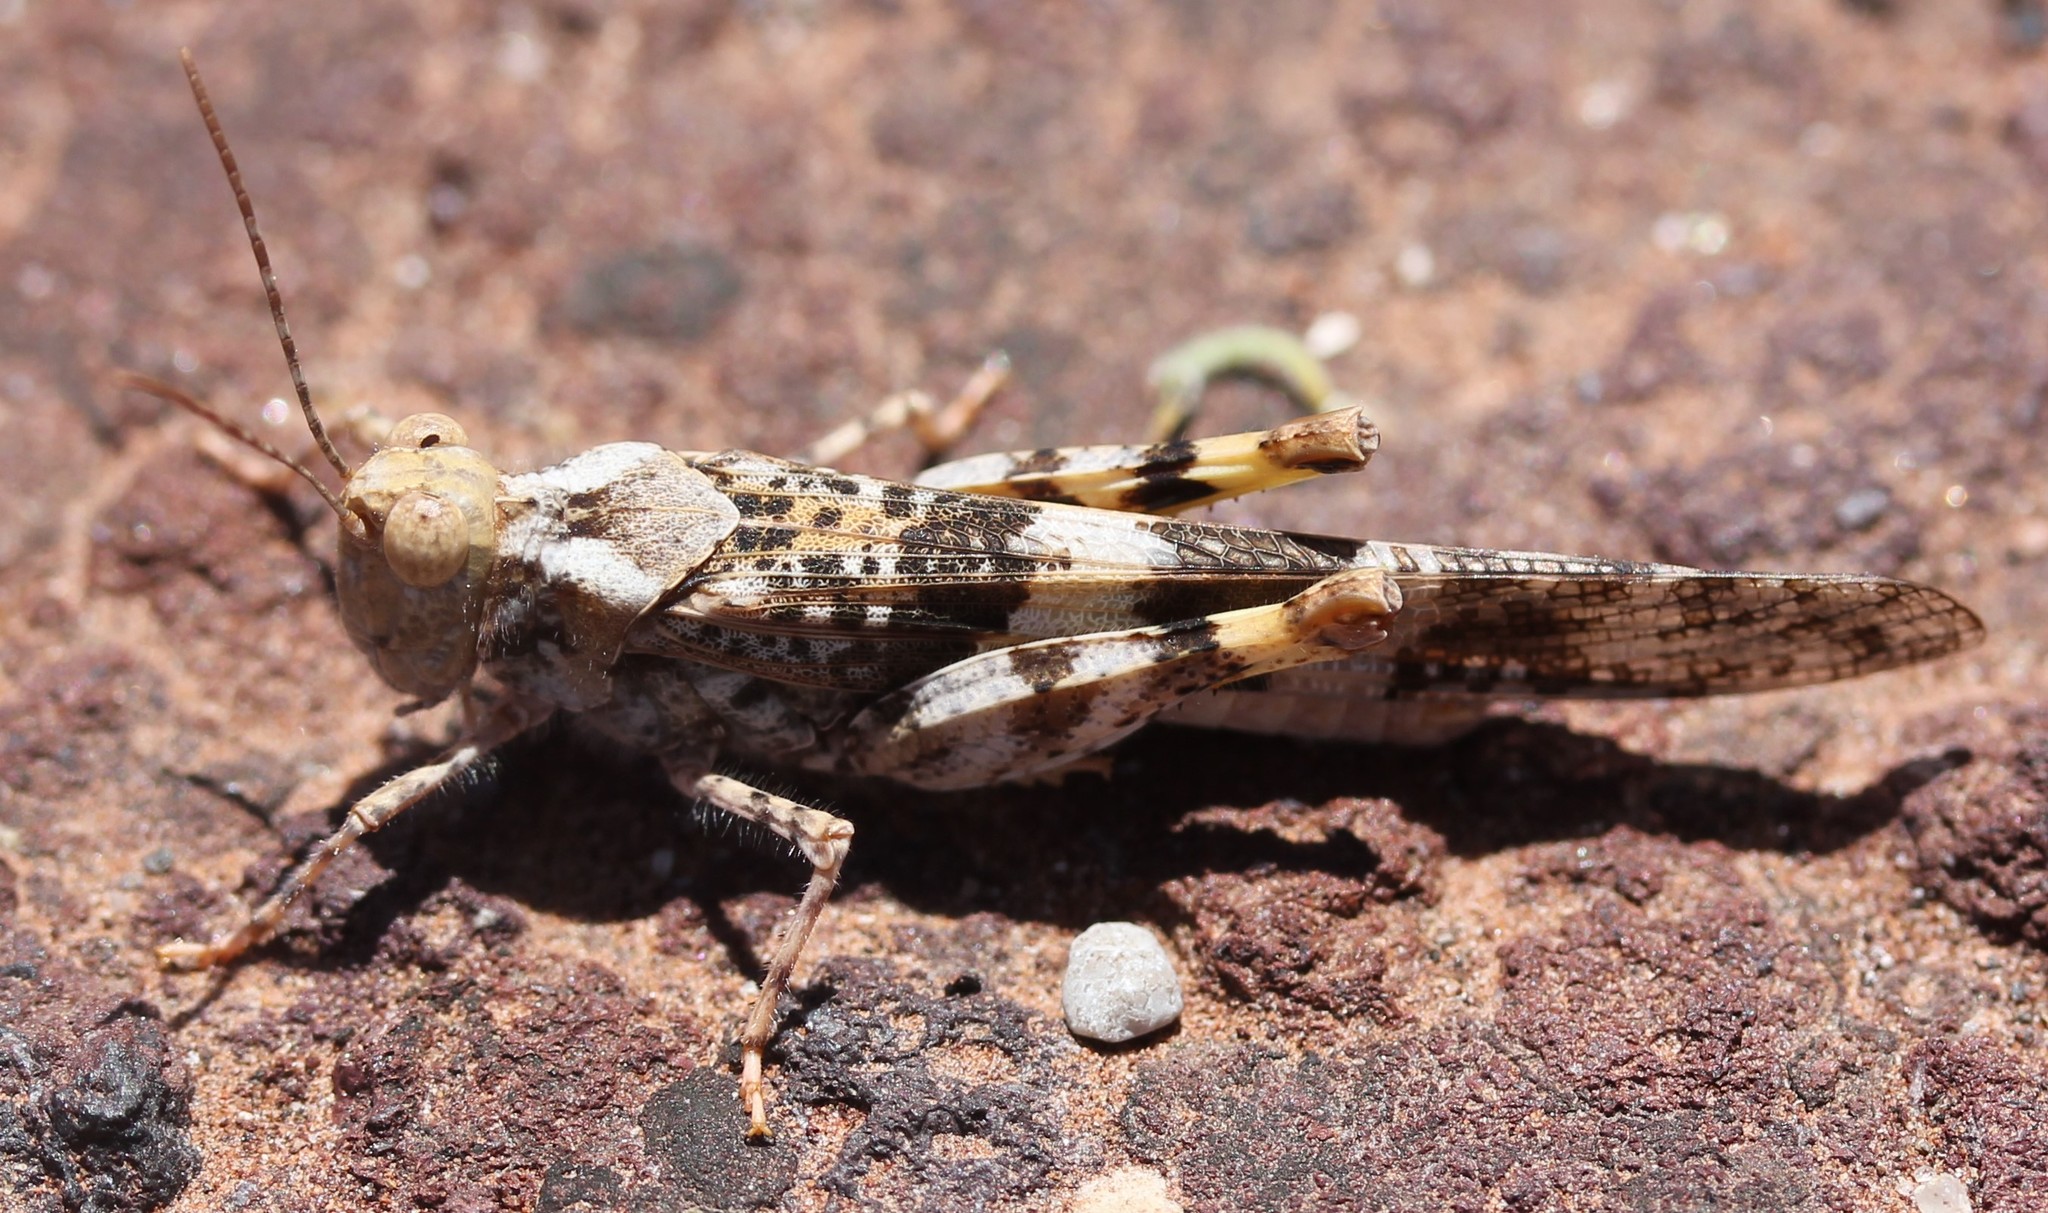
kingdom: Animalia
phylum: Arthropoda
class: Insecta
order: Orthoptera
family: Acrididae
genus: Trimerotropis
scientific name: Trimerotropis pallidipennis
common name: Pallid-winged grasshopper
